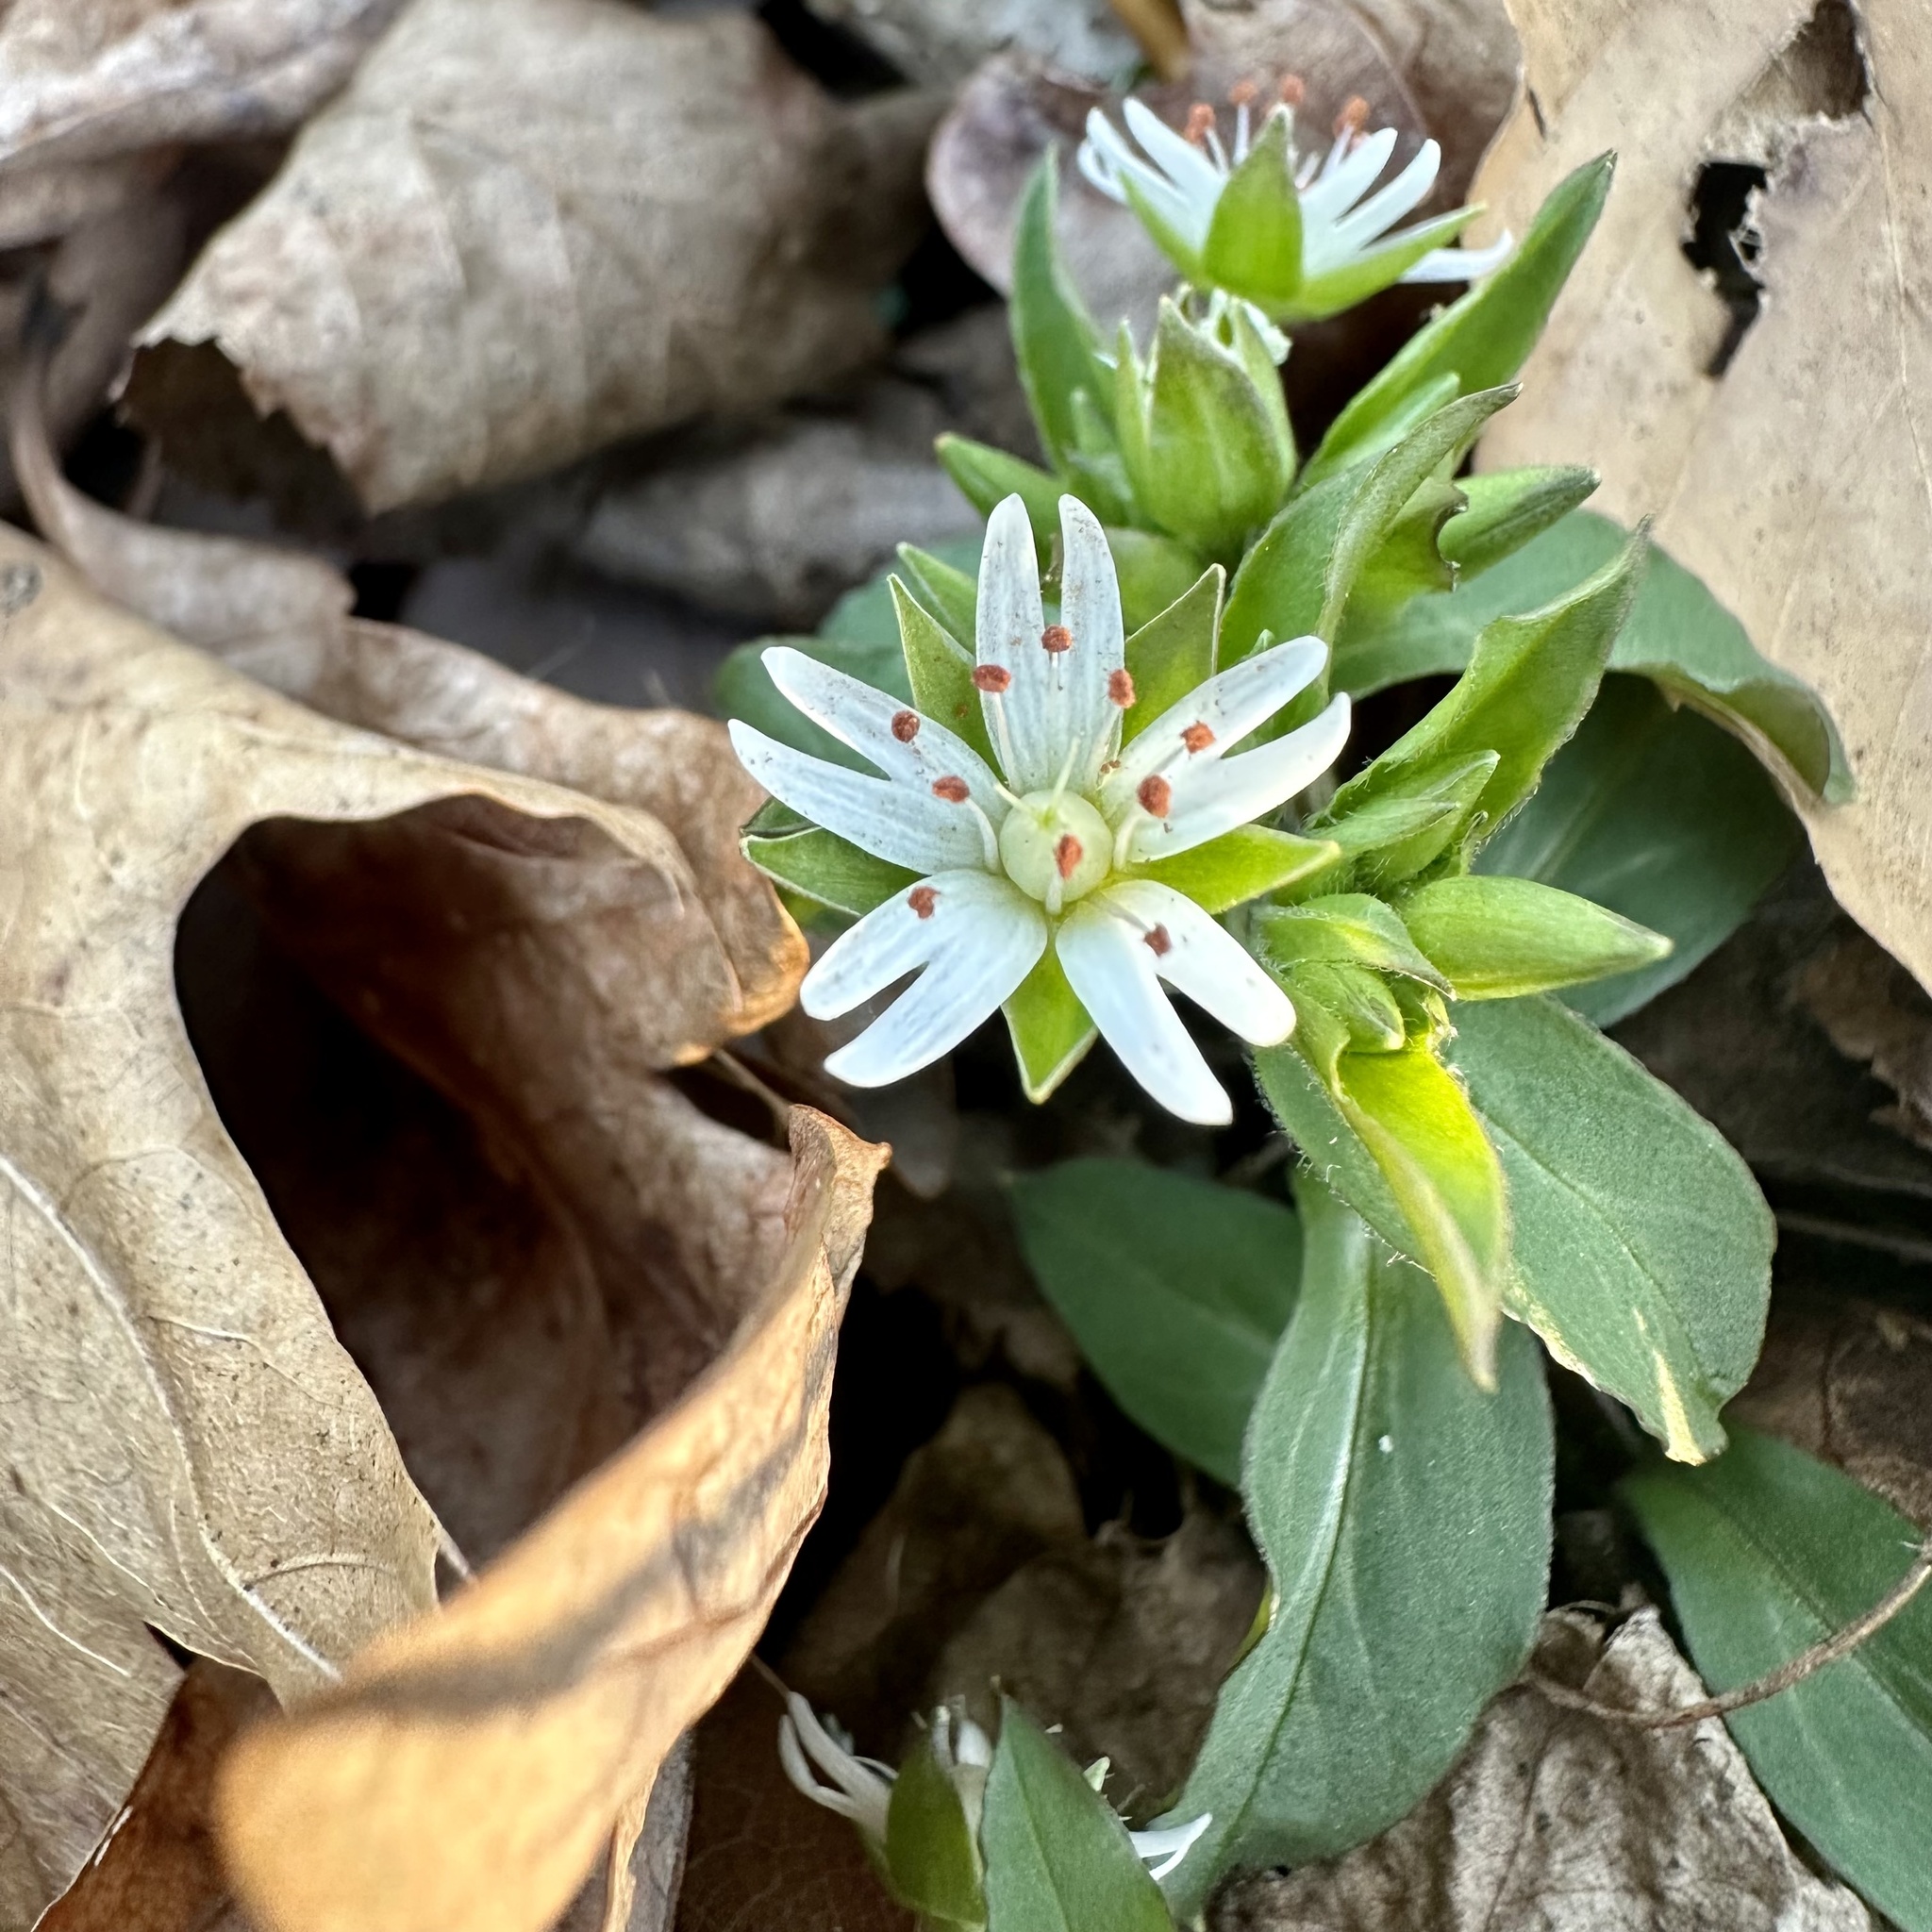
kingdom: Plantae
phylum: Tracheophyta
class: Magnoliopsida
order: Caryophyllales
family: Caryophyllaceae
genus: Stellaria
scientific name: Stellaria pubera
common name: Star chickweed
